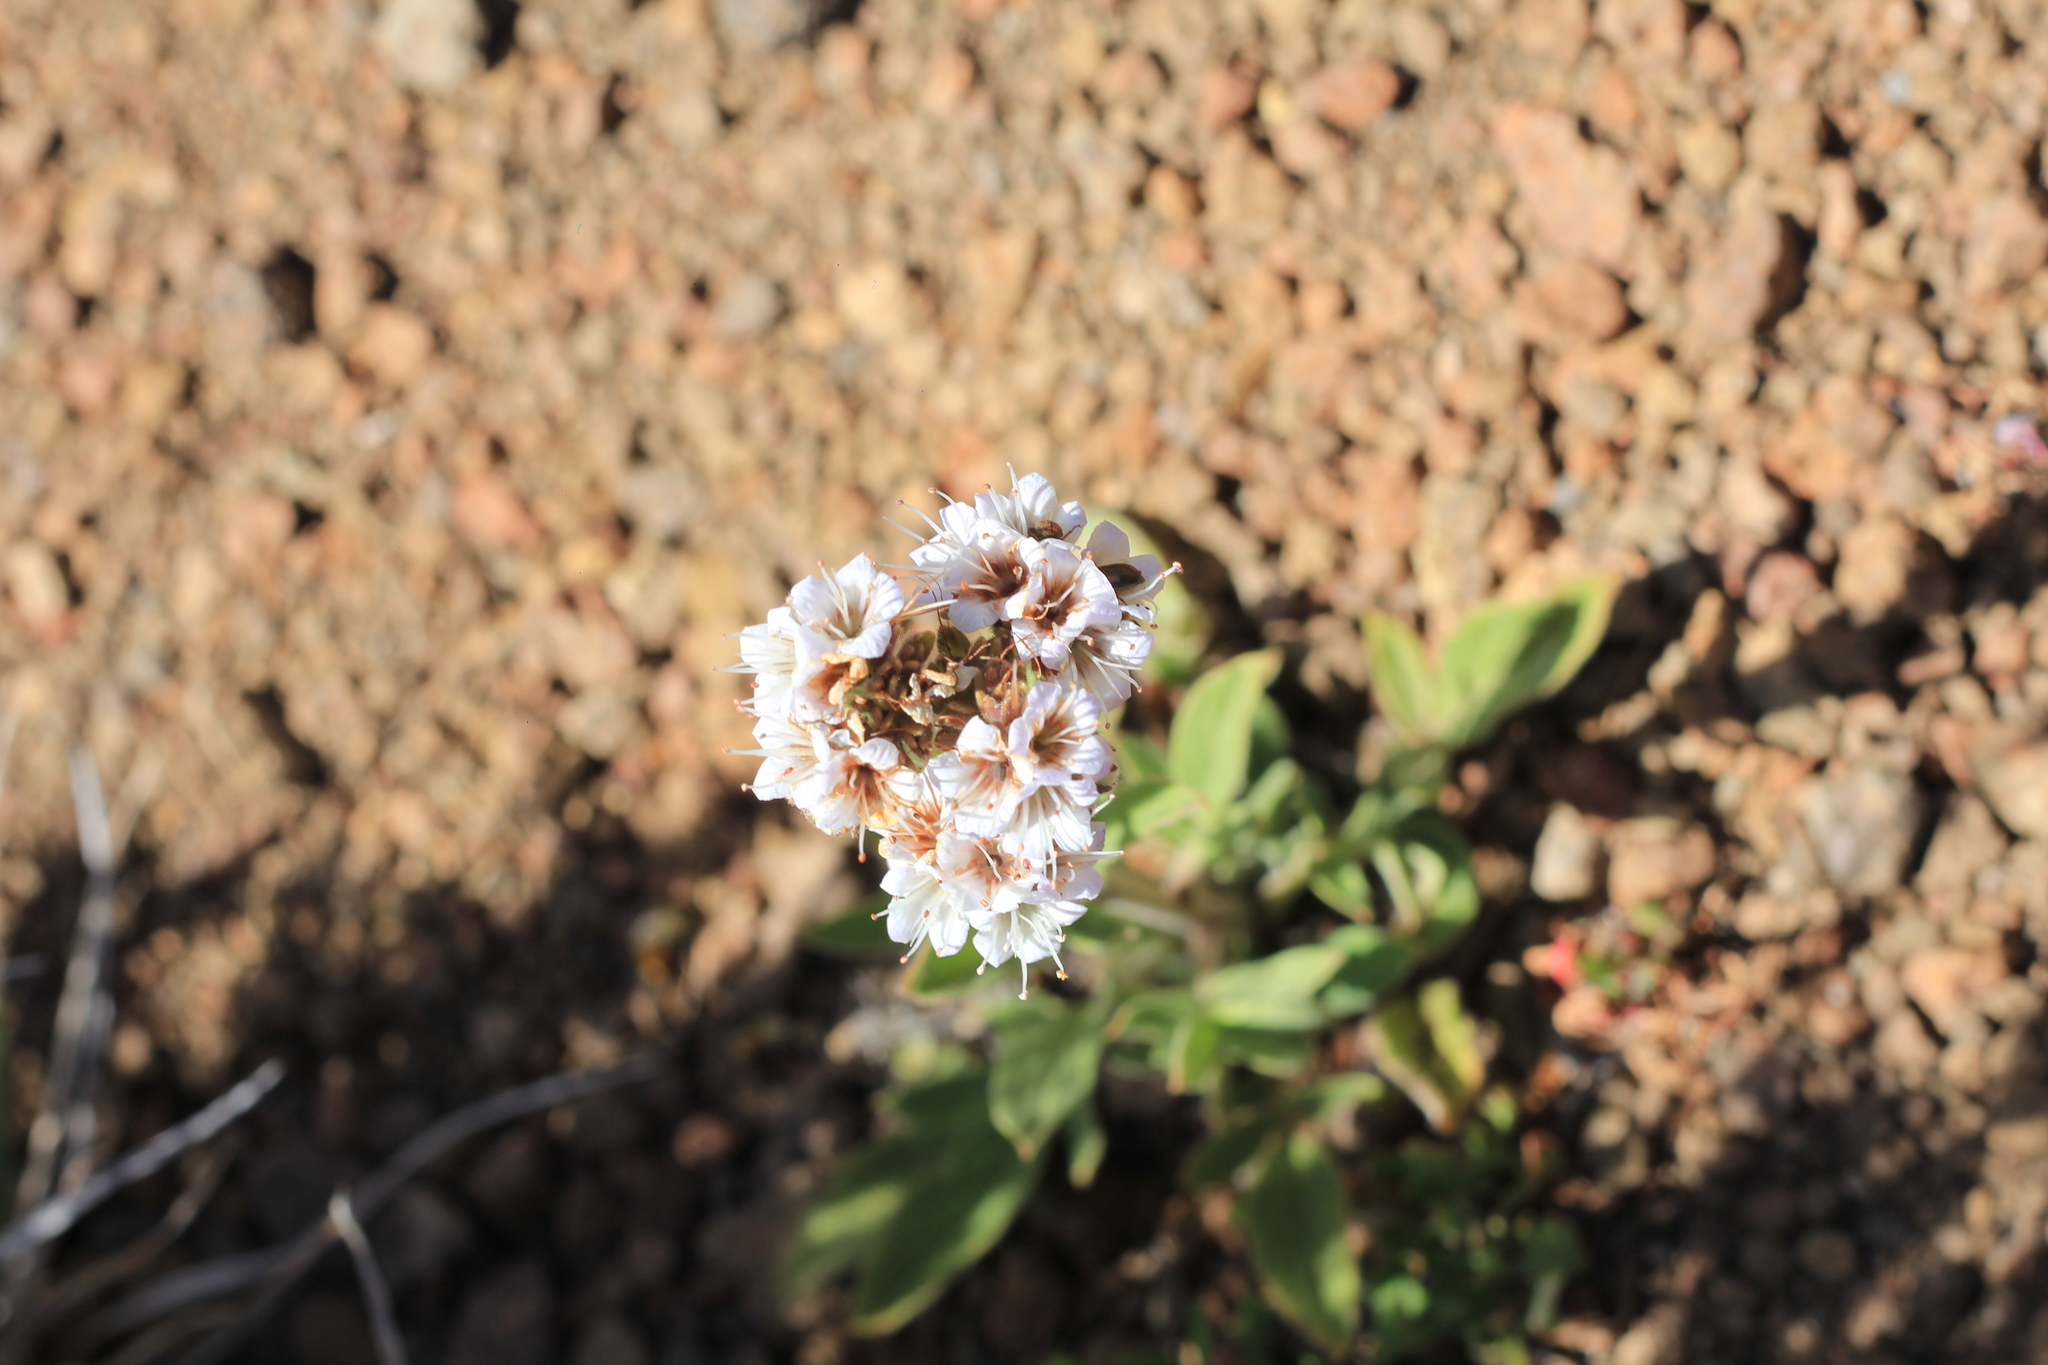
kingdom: Plantae
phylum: Tracheophyta
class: Magnoliopsida
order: Boraginales
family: Hydrophyllaceae
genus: Phacelia
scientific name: Phacelia secunda
